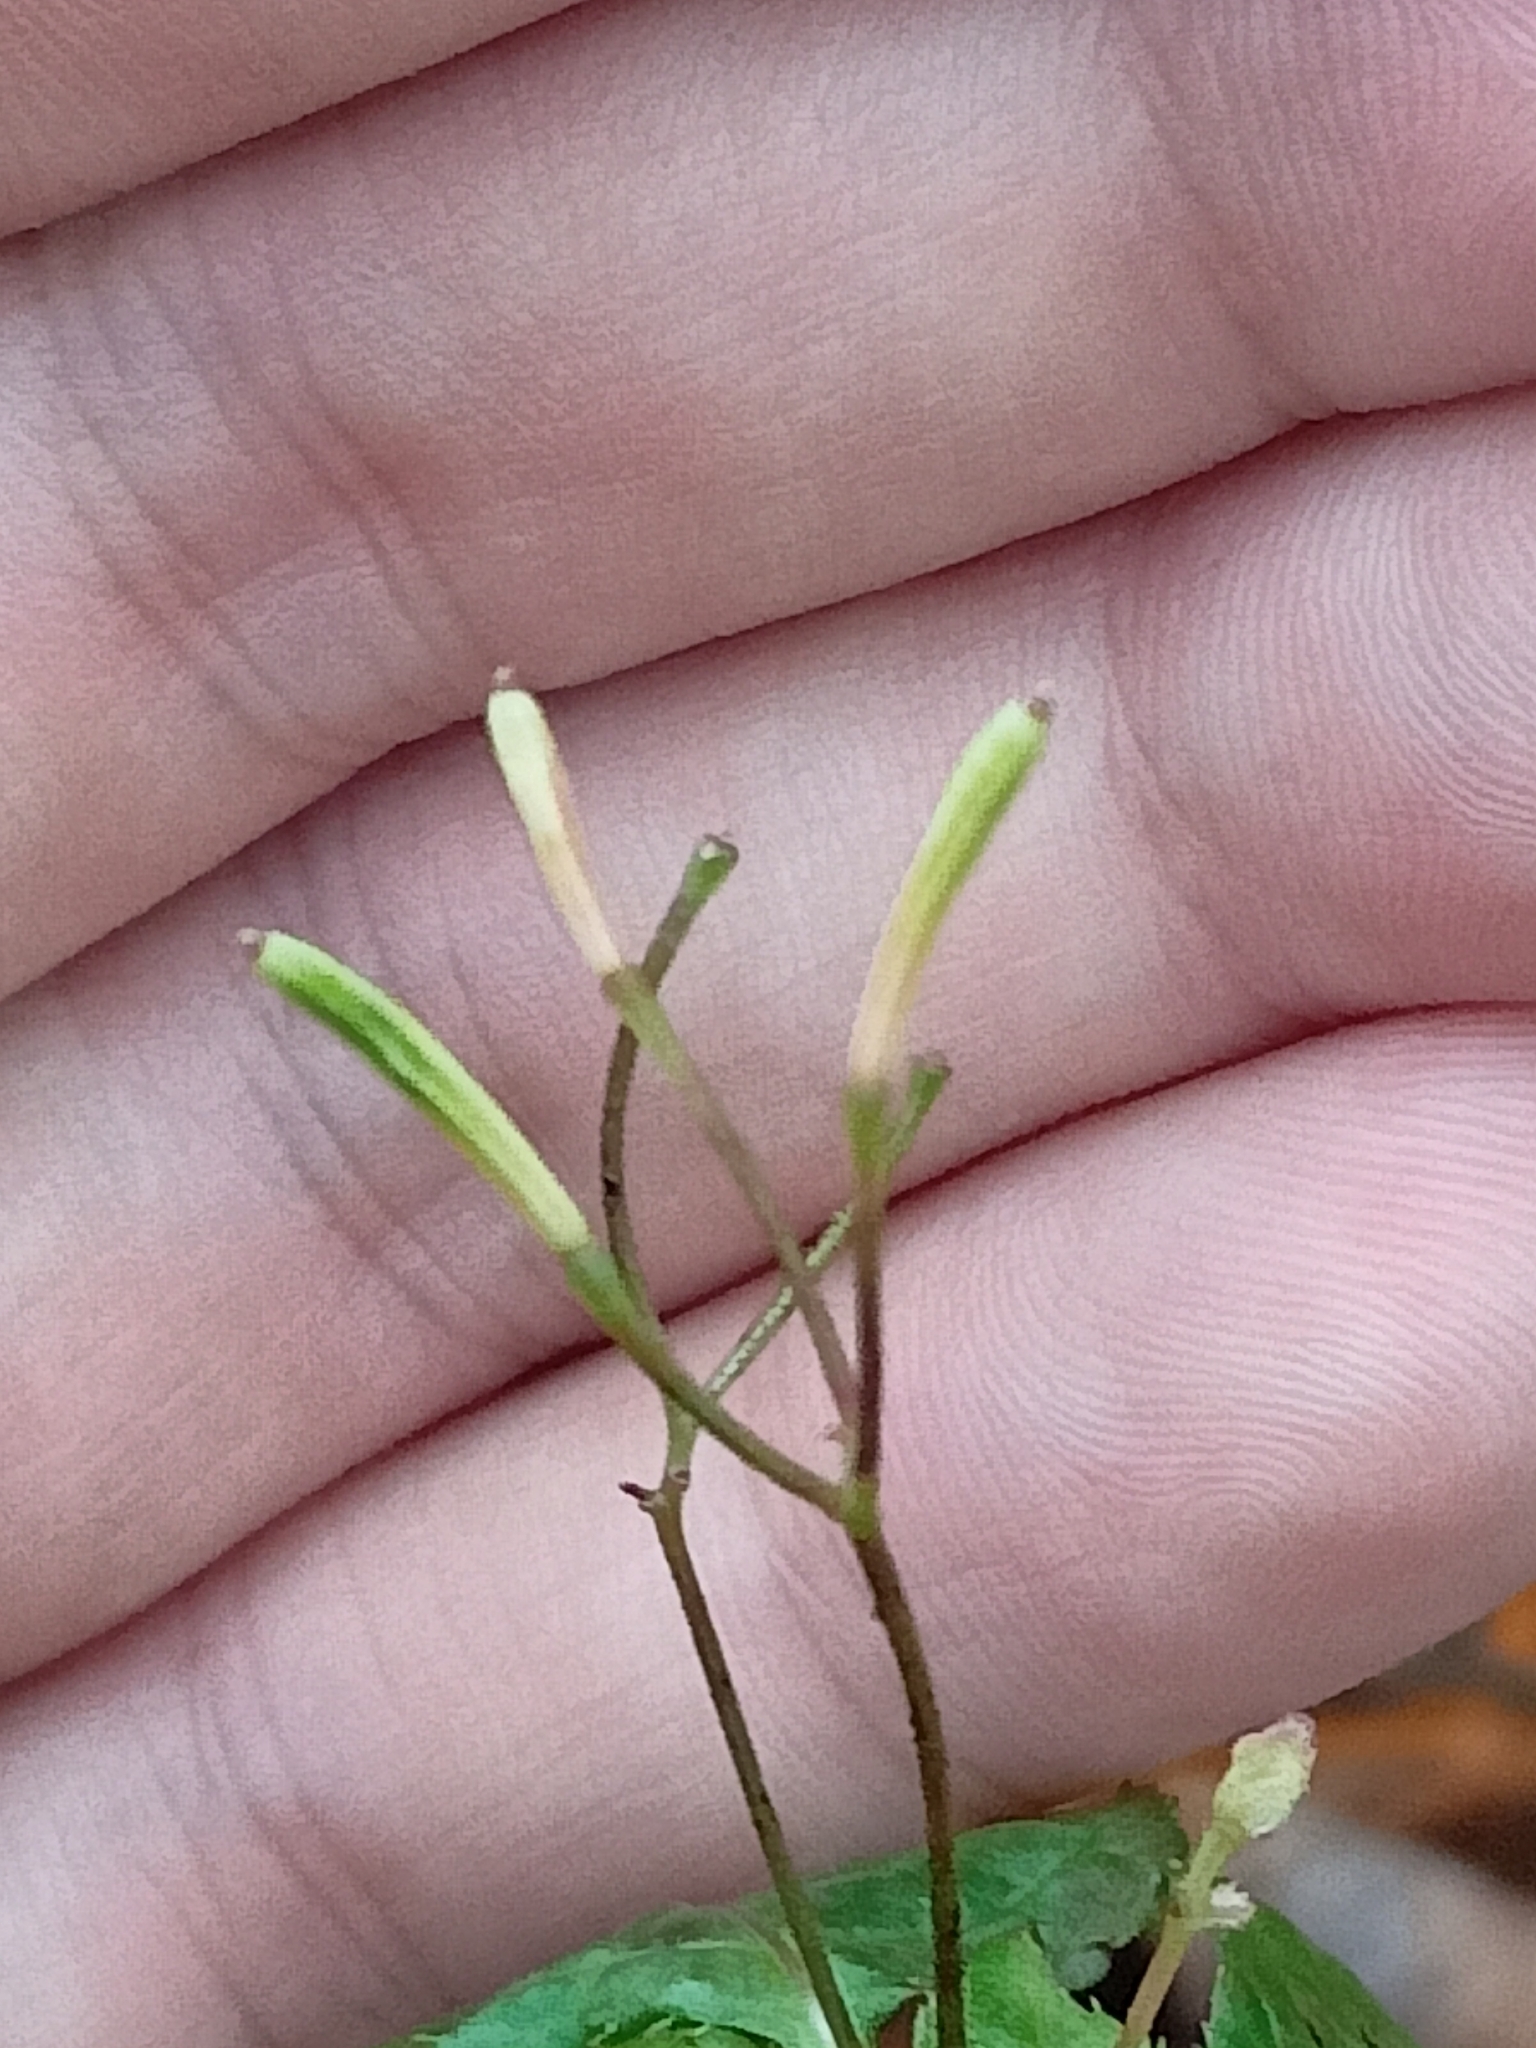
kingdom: Plantae
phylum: Tracheophyta
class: Magnoliopsida
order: Ericales
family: Balsaminaceae
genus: Impatiens
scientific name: Impatiens parviflora
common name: Small balsam
